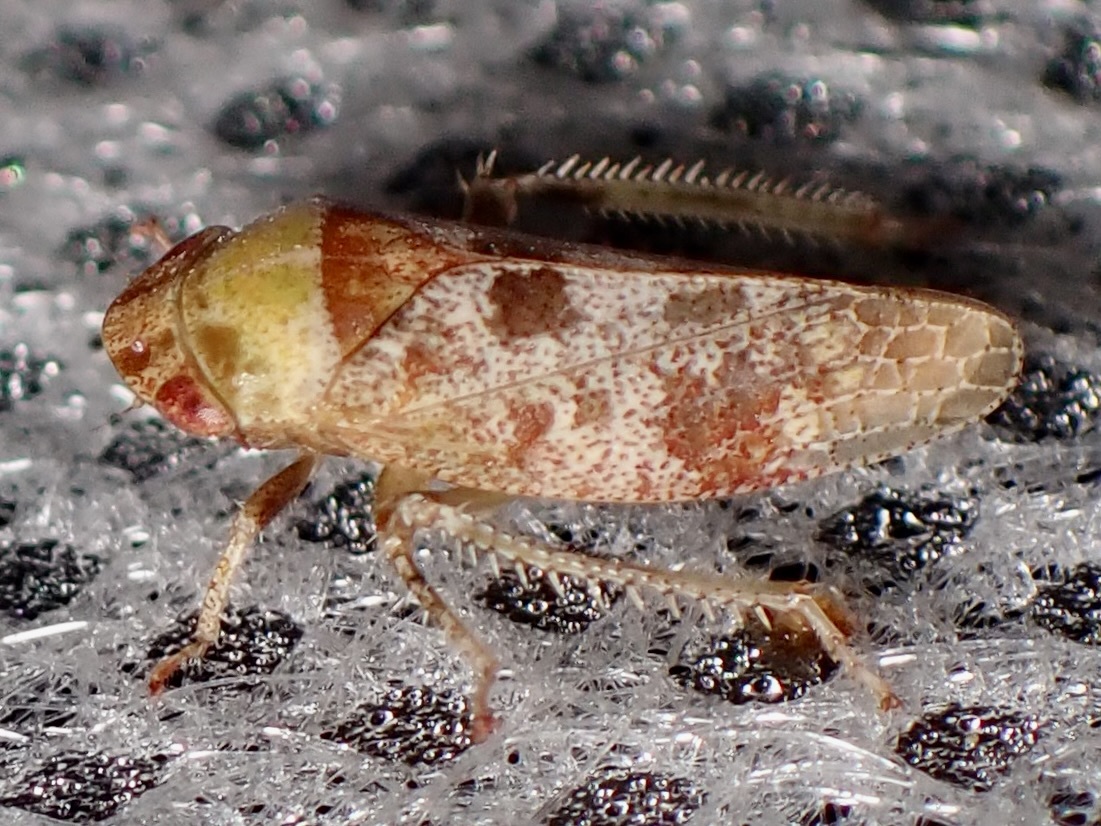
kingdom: Animalia
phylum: Arthropoda
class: Insecta
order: Hemiptera
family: Cicadellidae
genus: Dragonana
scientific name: Dragonana dracontea
